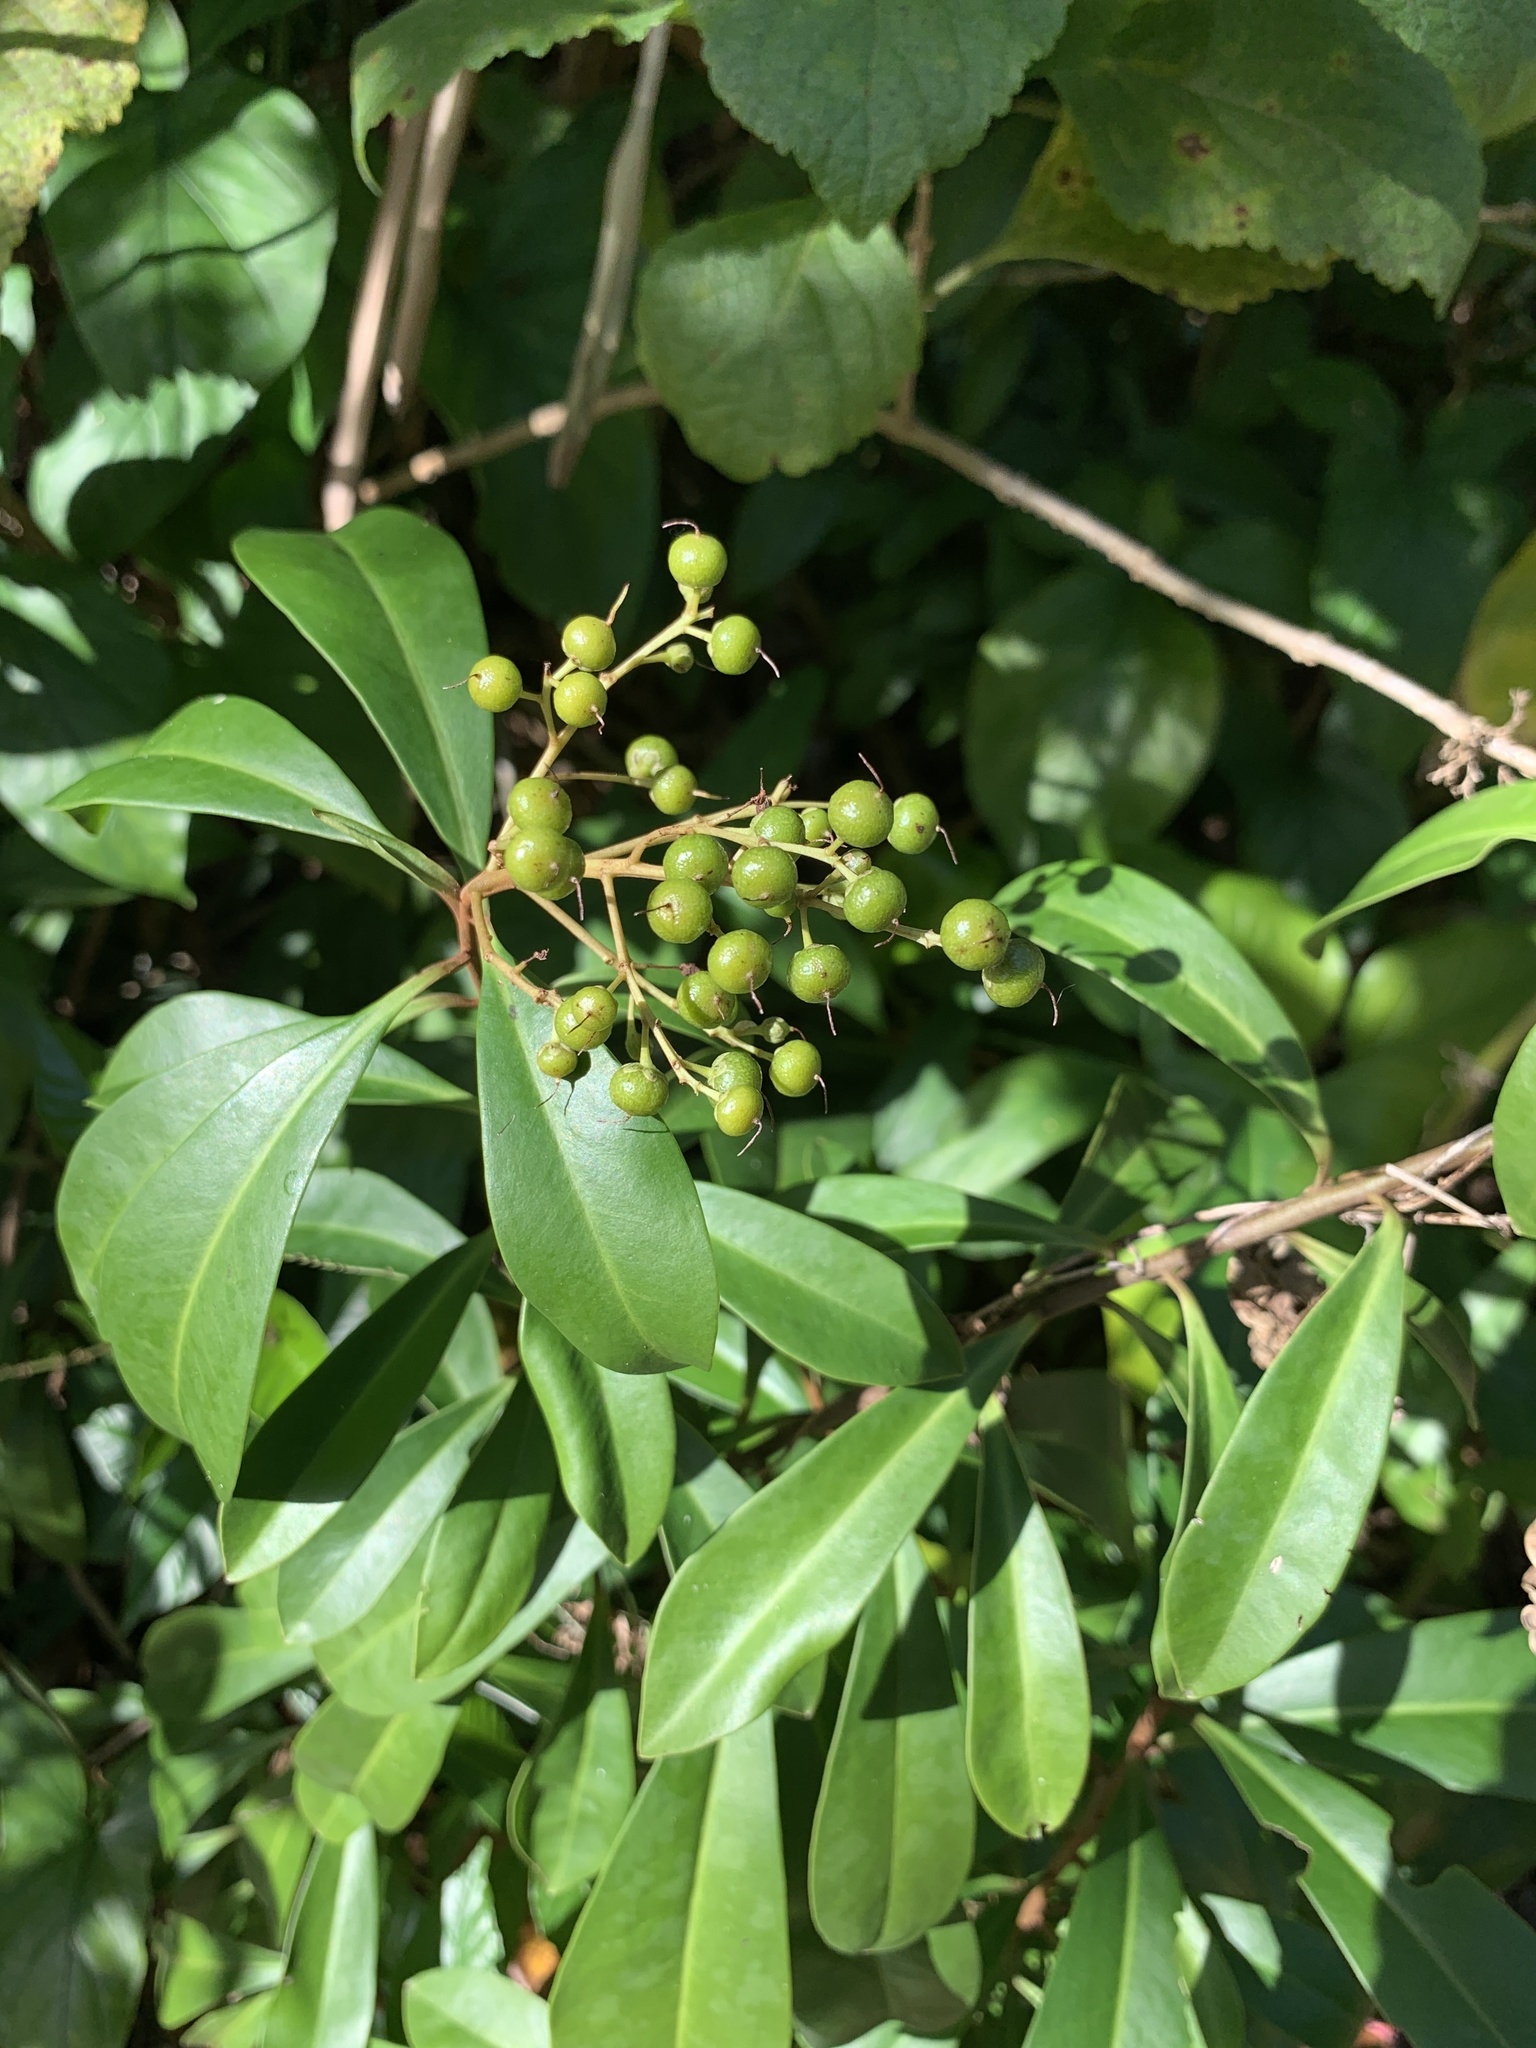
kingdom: Plantae
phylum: Tracheophyta
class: Magnoliopsida
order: Ericales
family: Primulaceae
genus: Ardisia
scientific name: Ardisia escallonioides
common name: Island marlberry
